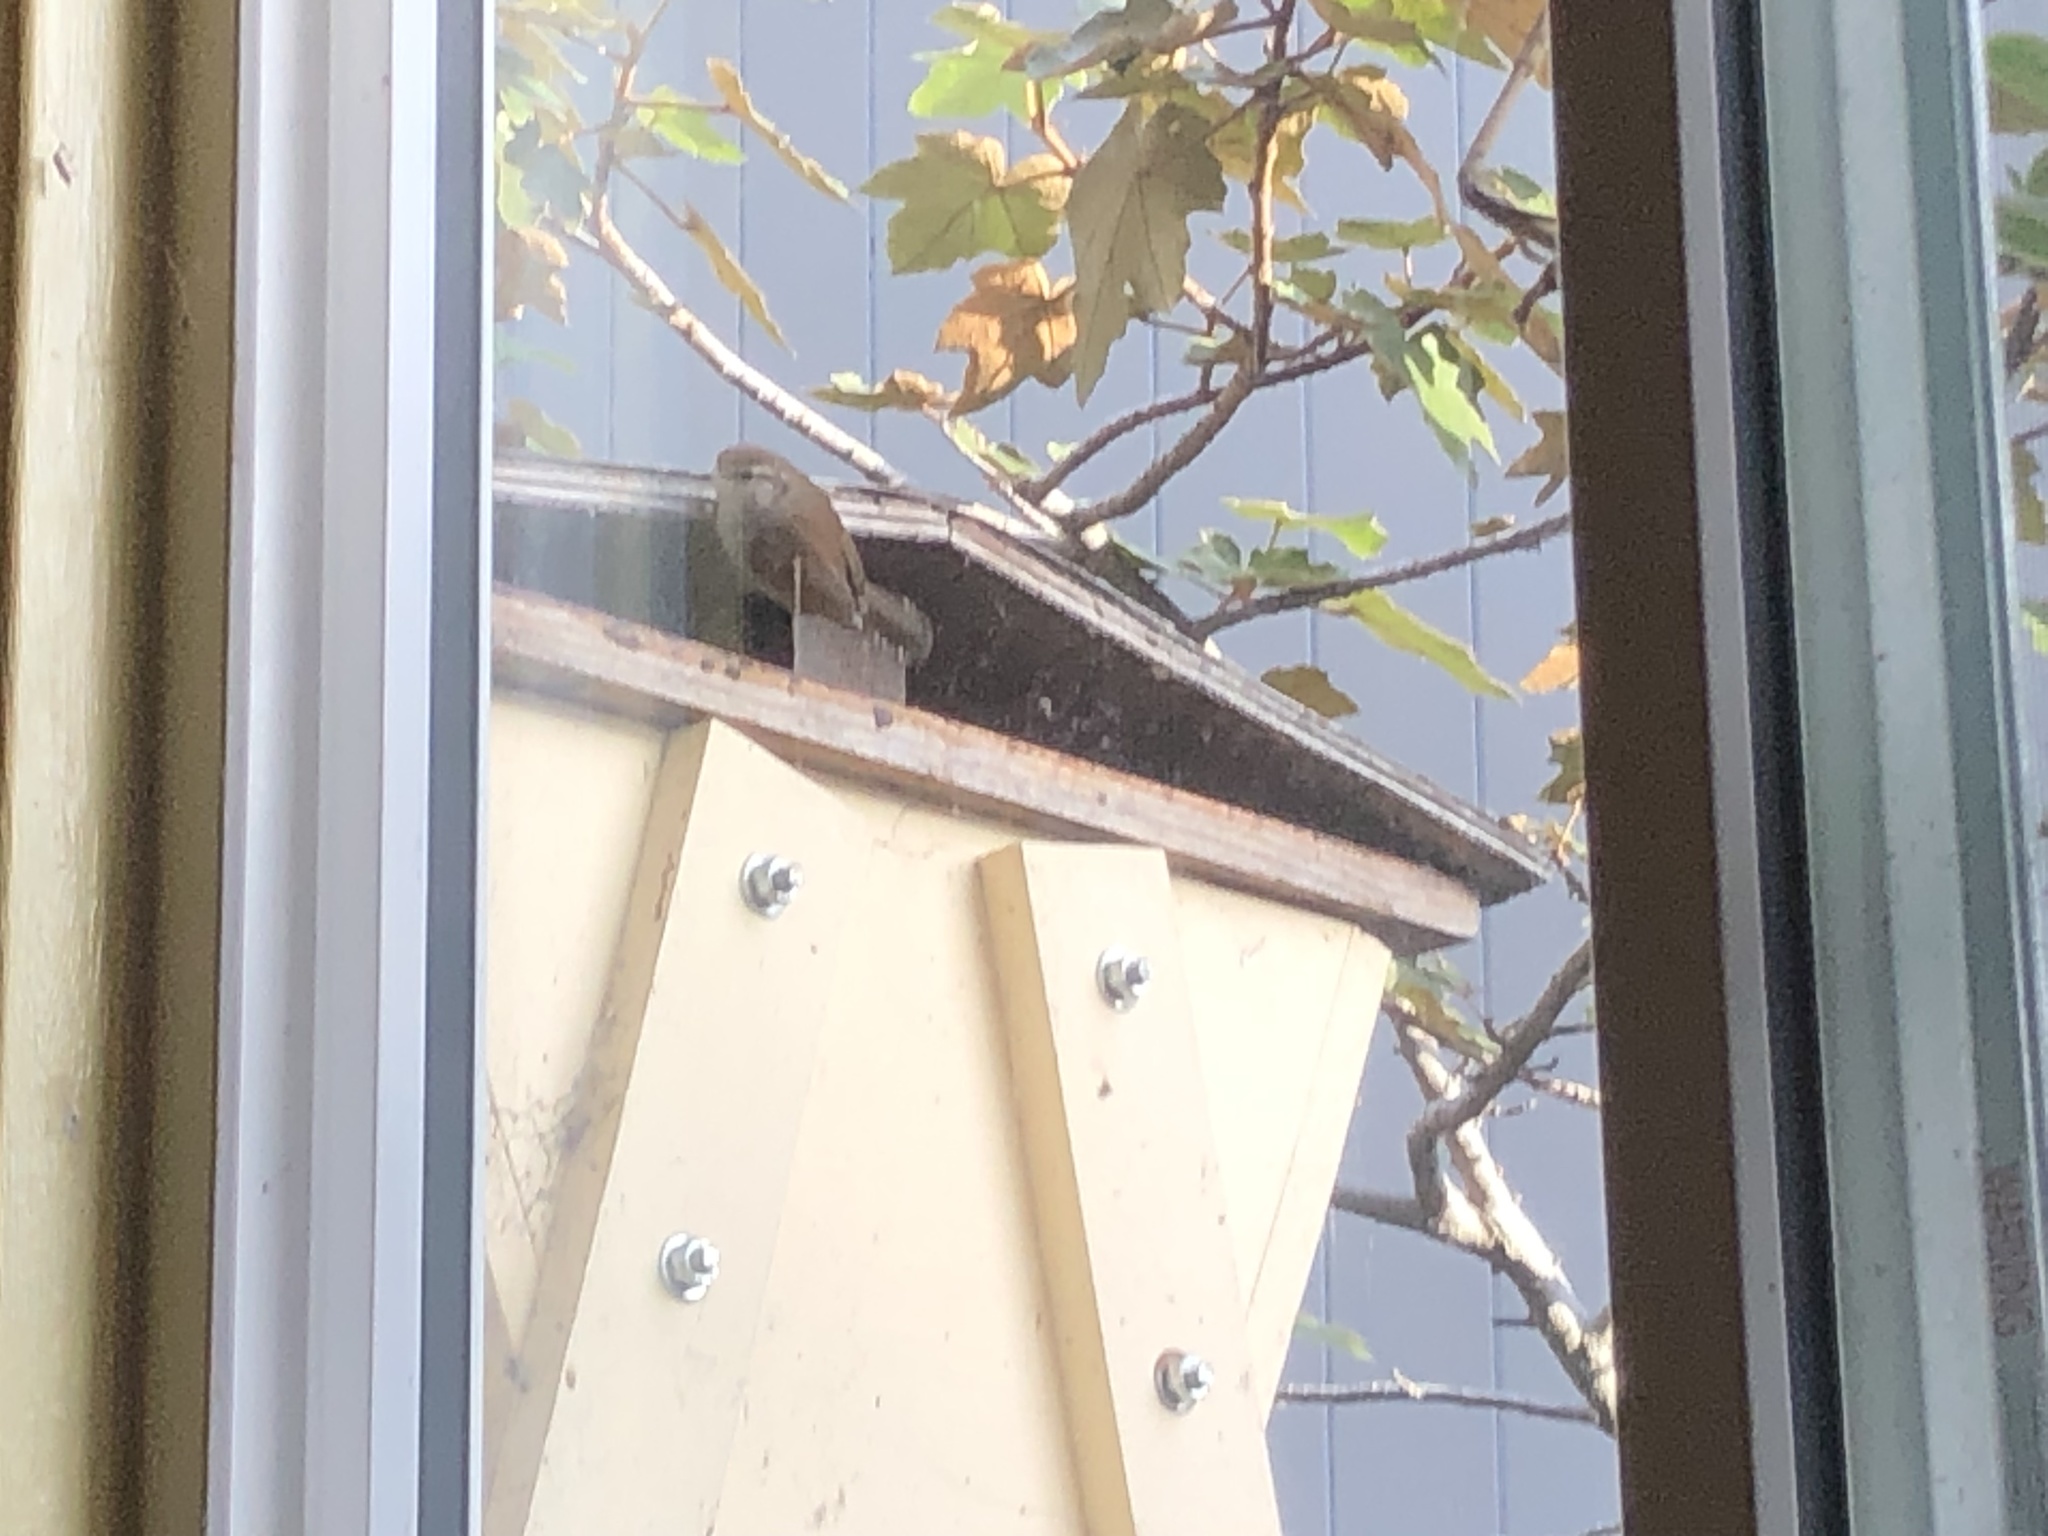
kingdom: Animalia
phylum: Chordata
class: Aves
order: Passeriformes
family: Troglodytidae
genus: Thryomanes
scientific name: Thryomanes bewickii
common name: Bewick's wren
